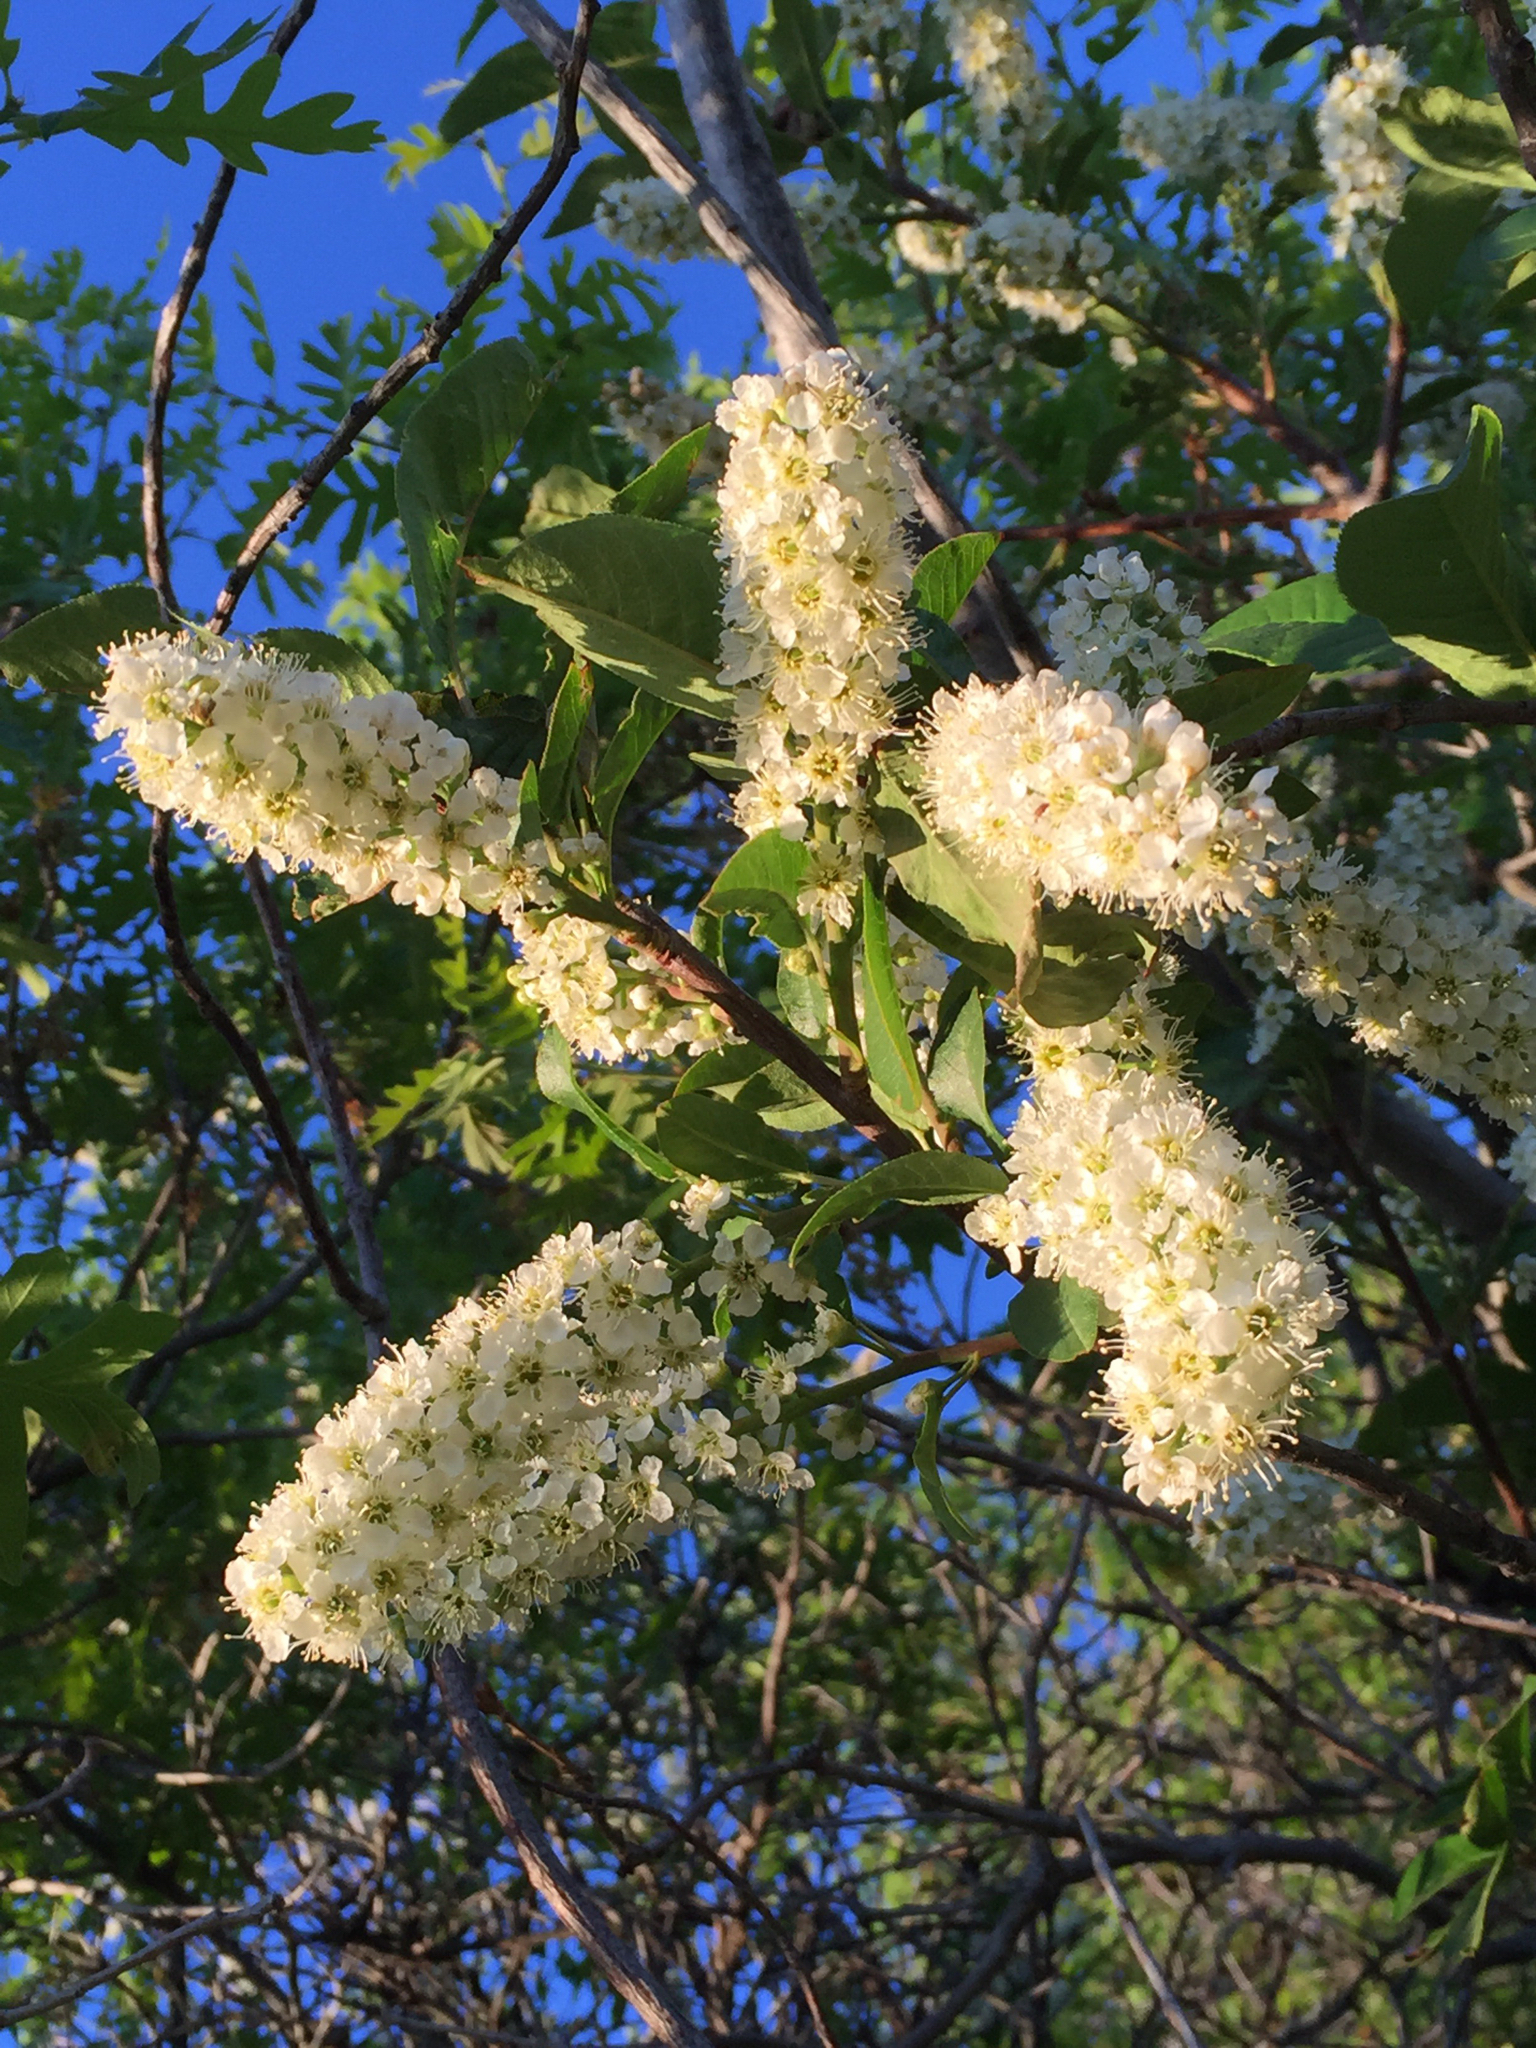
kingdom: Plantae
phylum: Tracheophyta
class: Magnoliopsida
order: Rosales
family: Rosaceae
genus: Prunus
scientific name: Prunus virginiana
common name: Chokecherry
